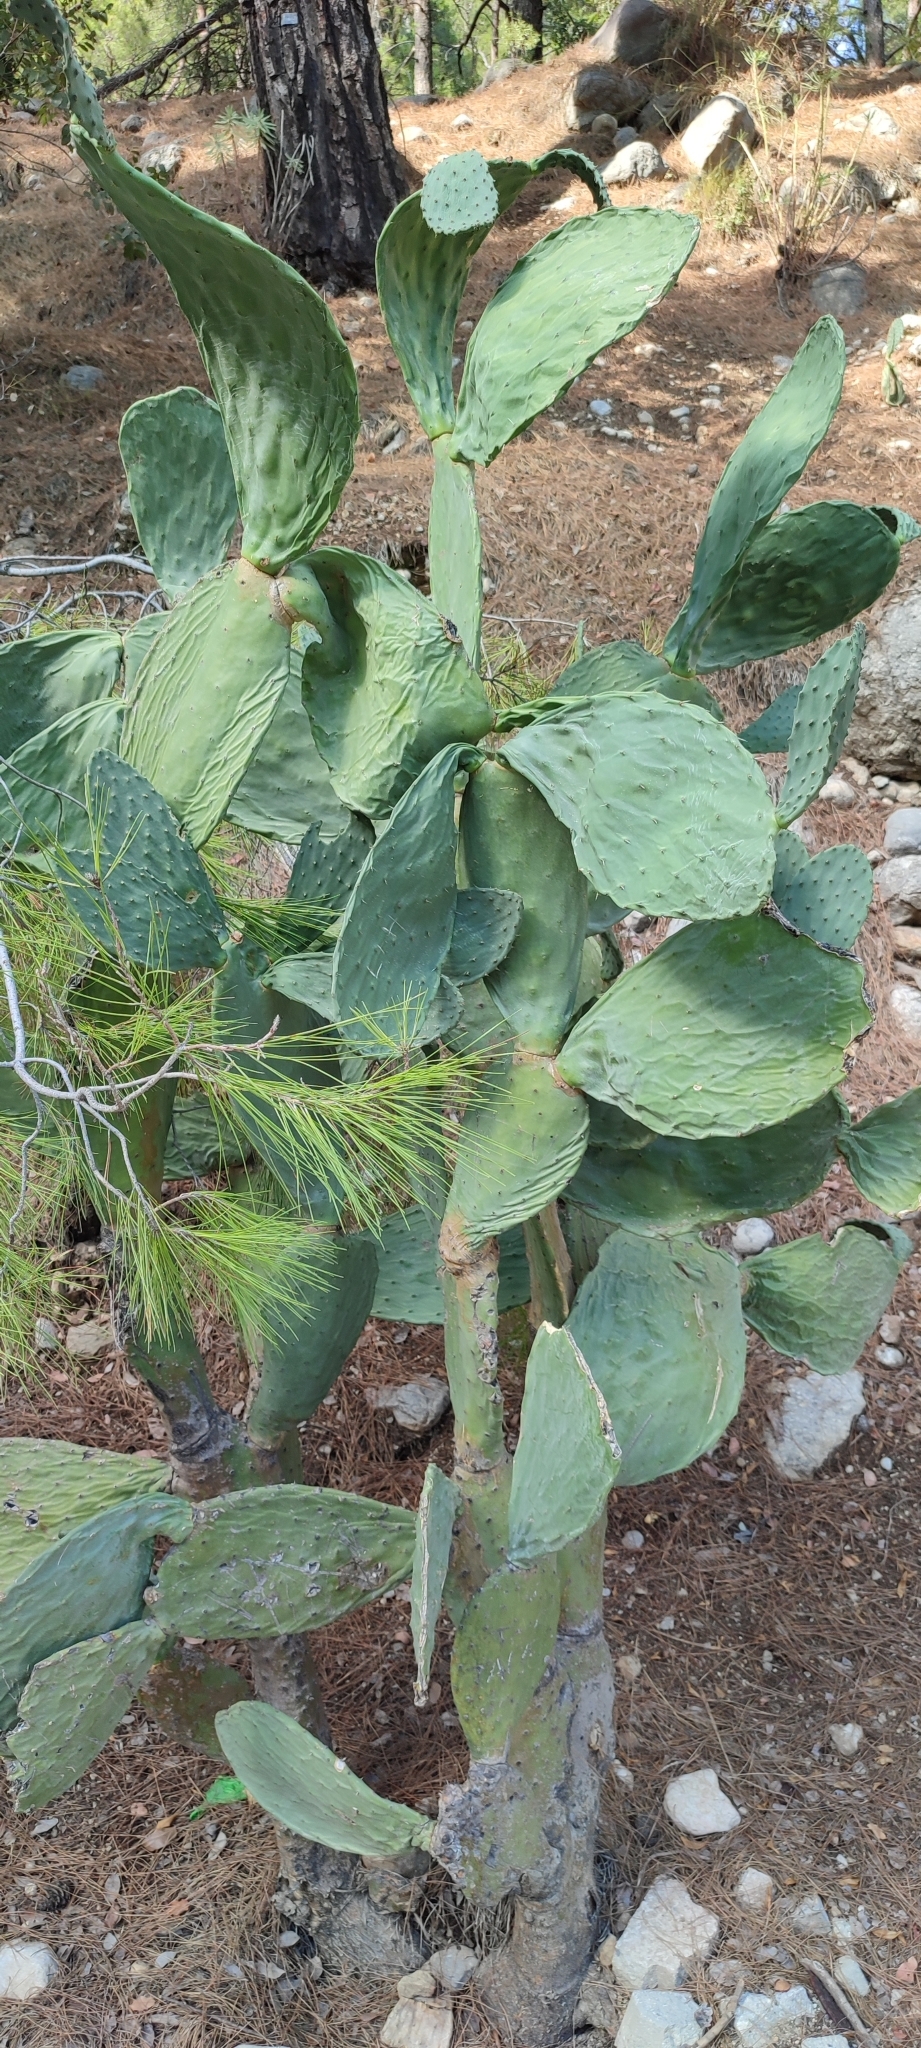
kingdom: Plantae
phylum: Tracheophyta
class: Magnoliopsida
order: Caryophyllales
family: Cactaceae
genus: Opuntia
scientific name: Opuntia ficus-indica
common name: Barbary fig
